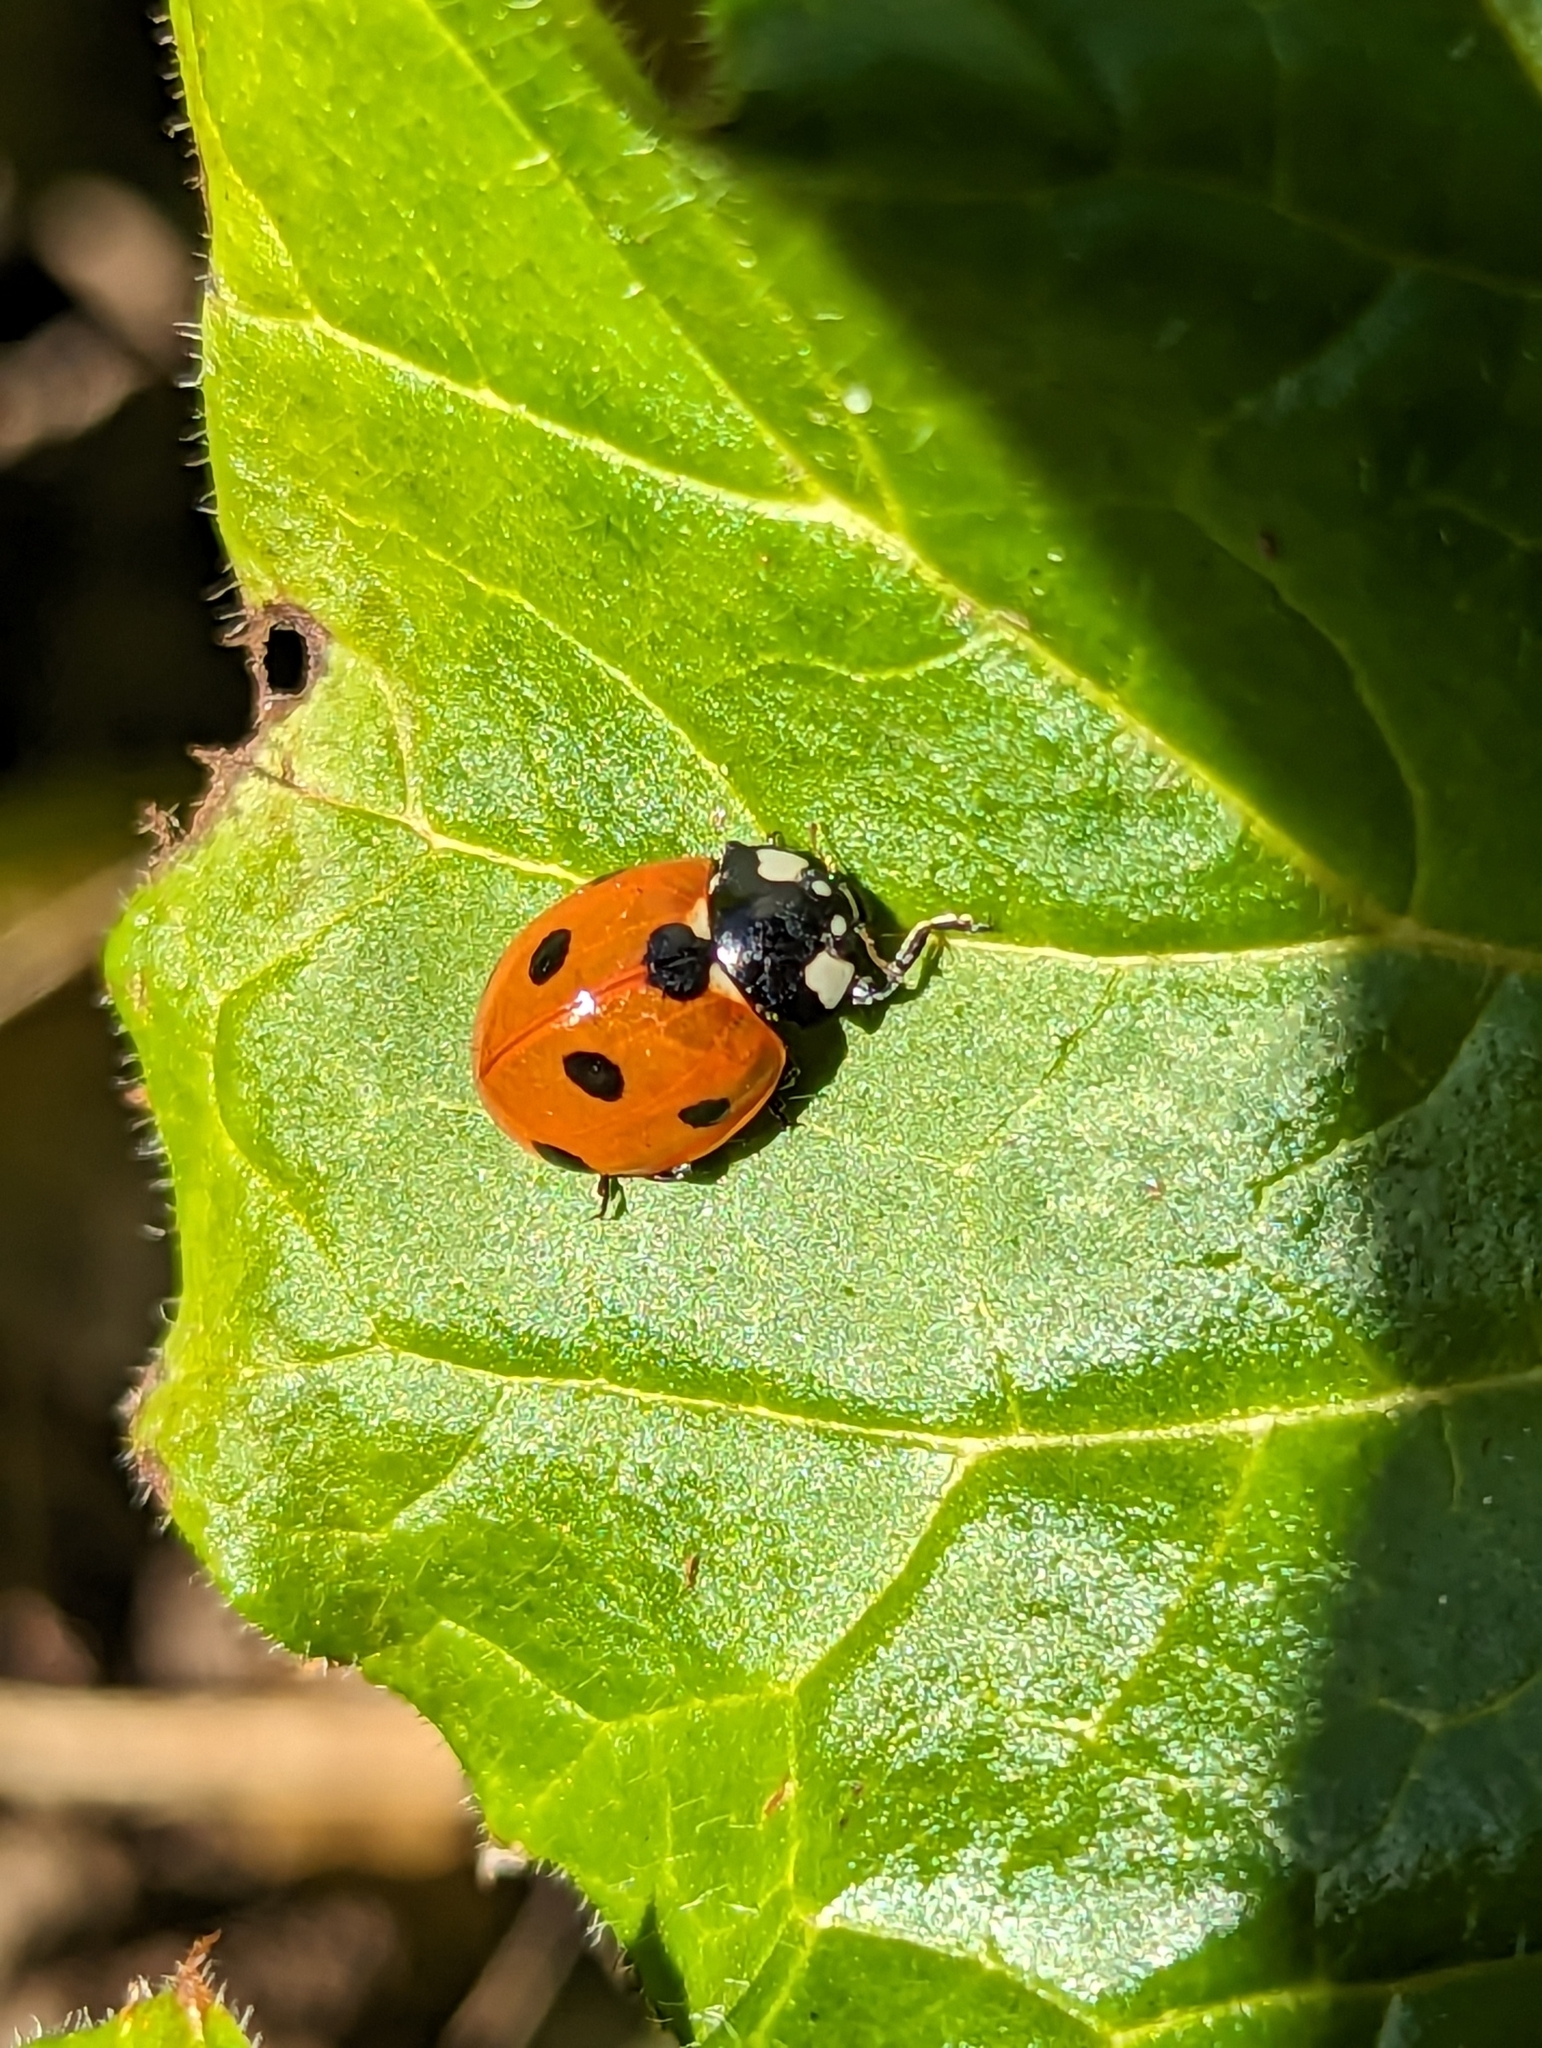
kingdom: Animalia
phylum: Arthropoda
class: Insecta
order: Coleoptera
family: Coccinellidae
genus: Coccinella
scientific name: Coccinella septempunctata
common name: Sevenspotted lady beetle
